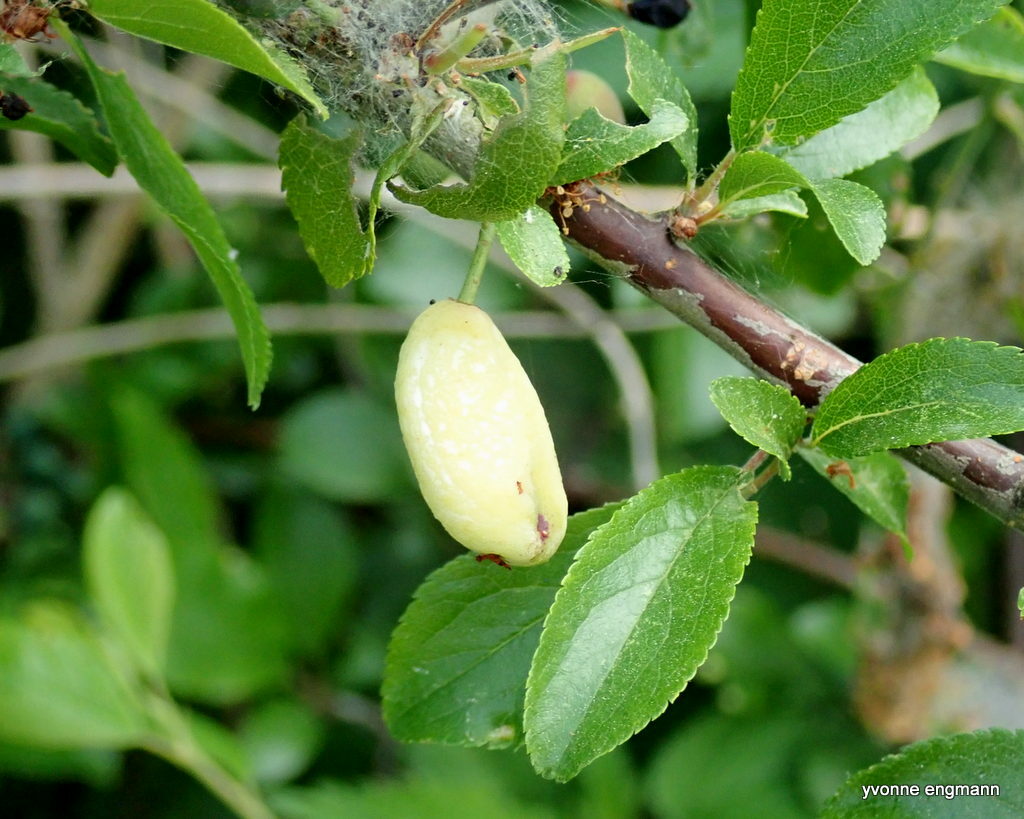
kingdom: Fungi
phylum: Ascomycota
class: Taphrinomycetes
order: Taphrinales
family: Taphrinaceae
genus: Taphrina
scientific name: Taphrina pruni
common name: Pocket plum
